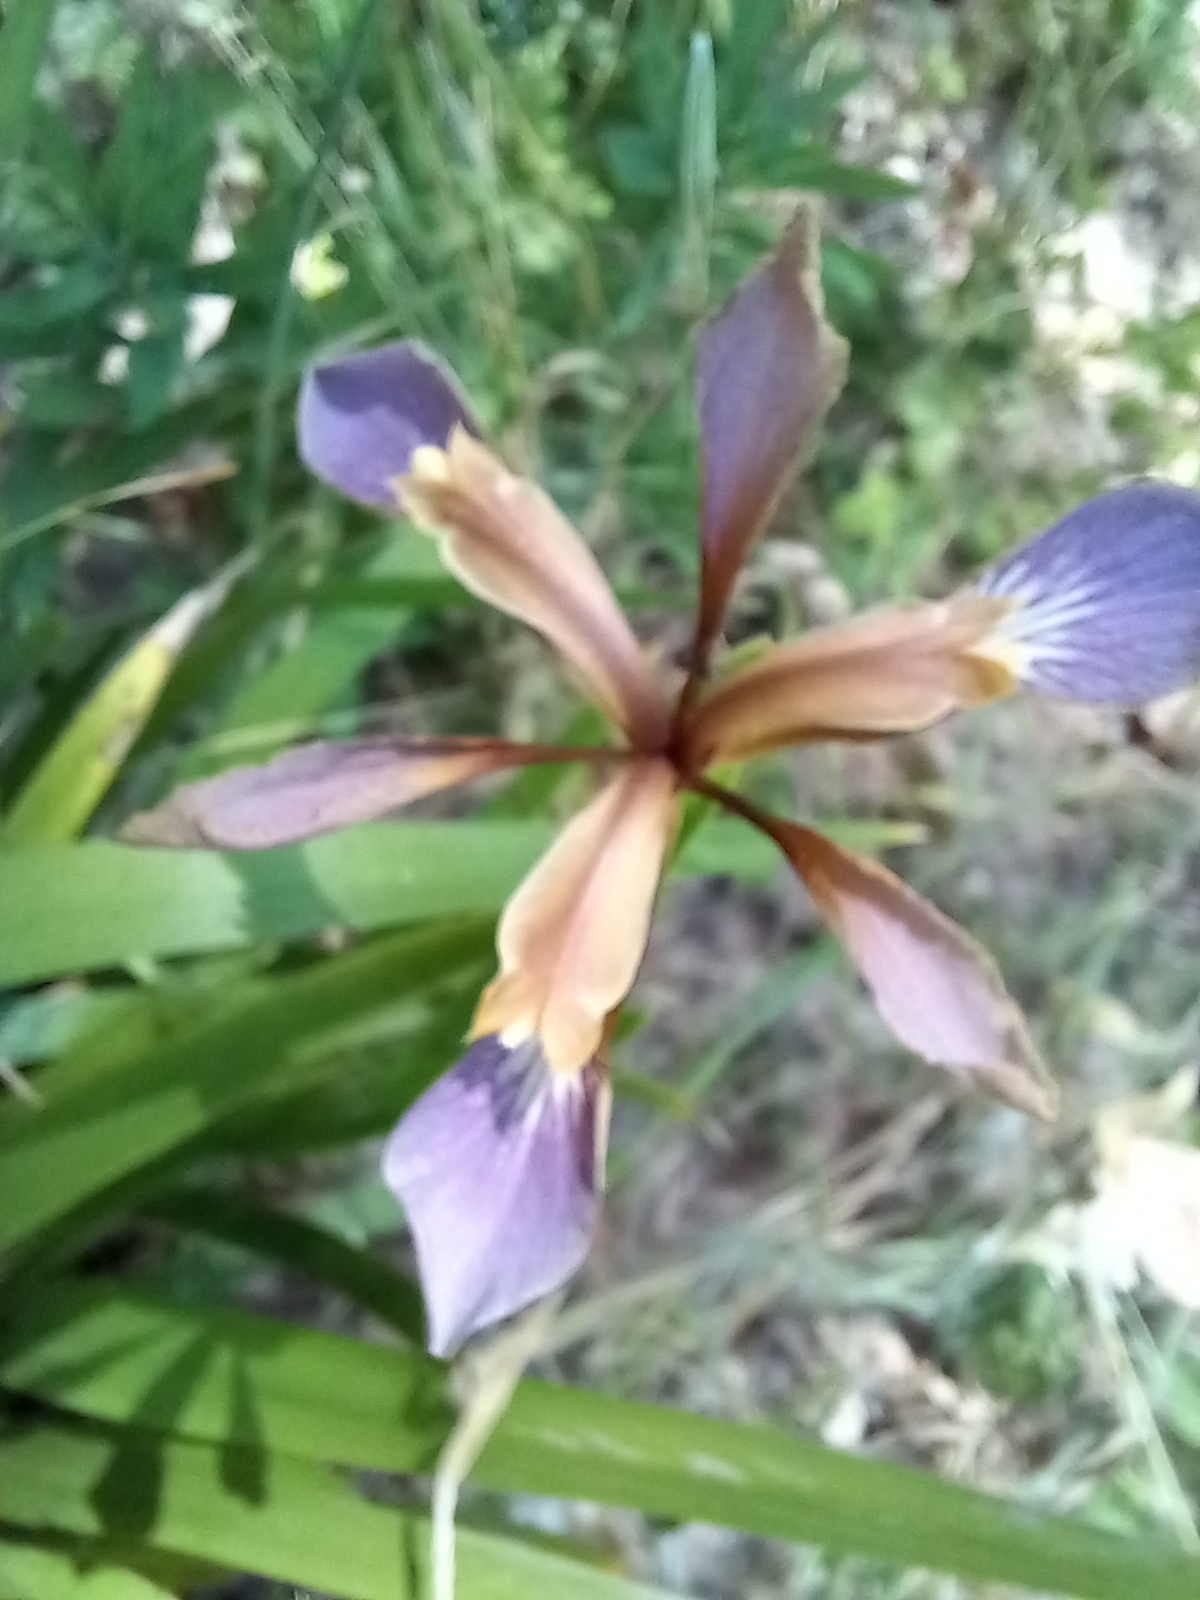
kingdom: Plantae
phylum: Tracheophyta
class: Liliopsida
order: Asparagales
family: Iridaceae
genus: Iris
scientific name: Iris foetidissima
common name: Stinking iris
